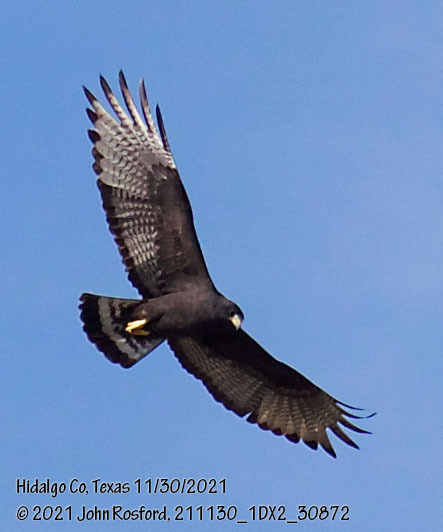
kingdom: Animalia
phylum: Chordata
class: Aves
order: Accipitriformes
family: Accipitridae
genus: Buteo
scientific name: Buteo albonotatus
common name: Zone-tailed hawk
